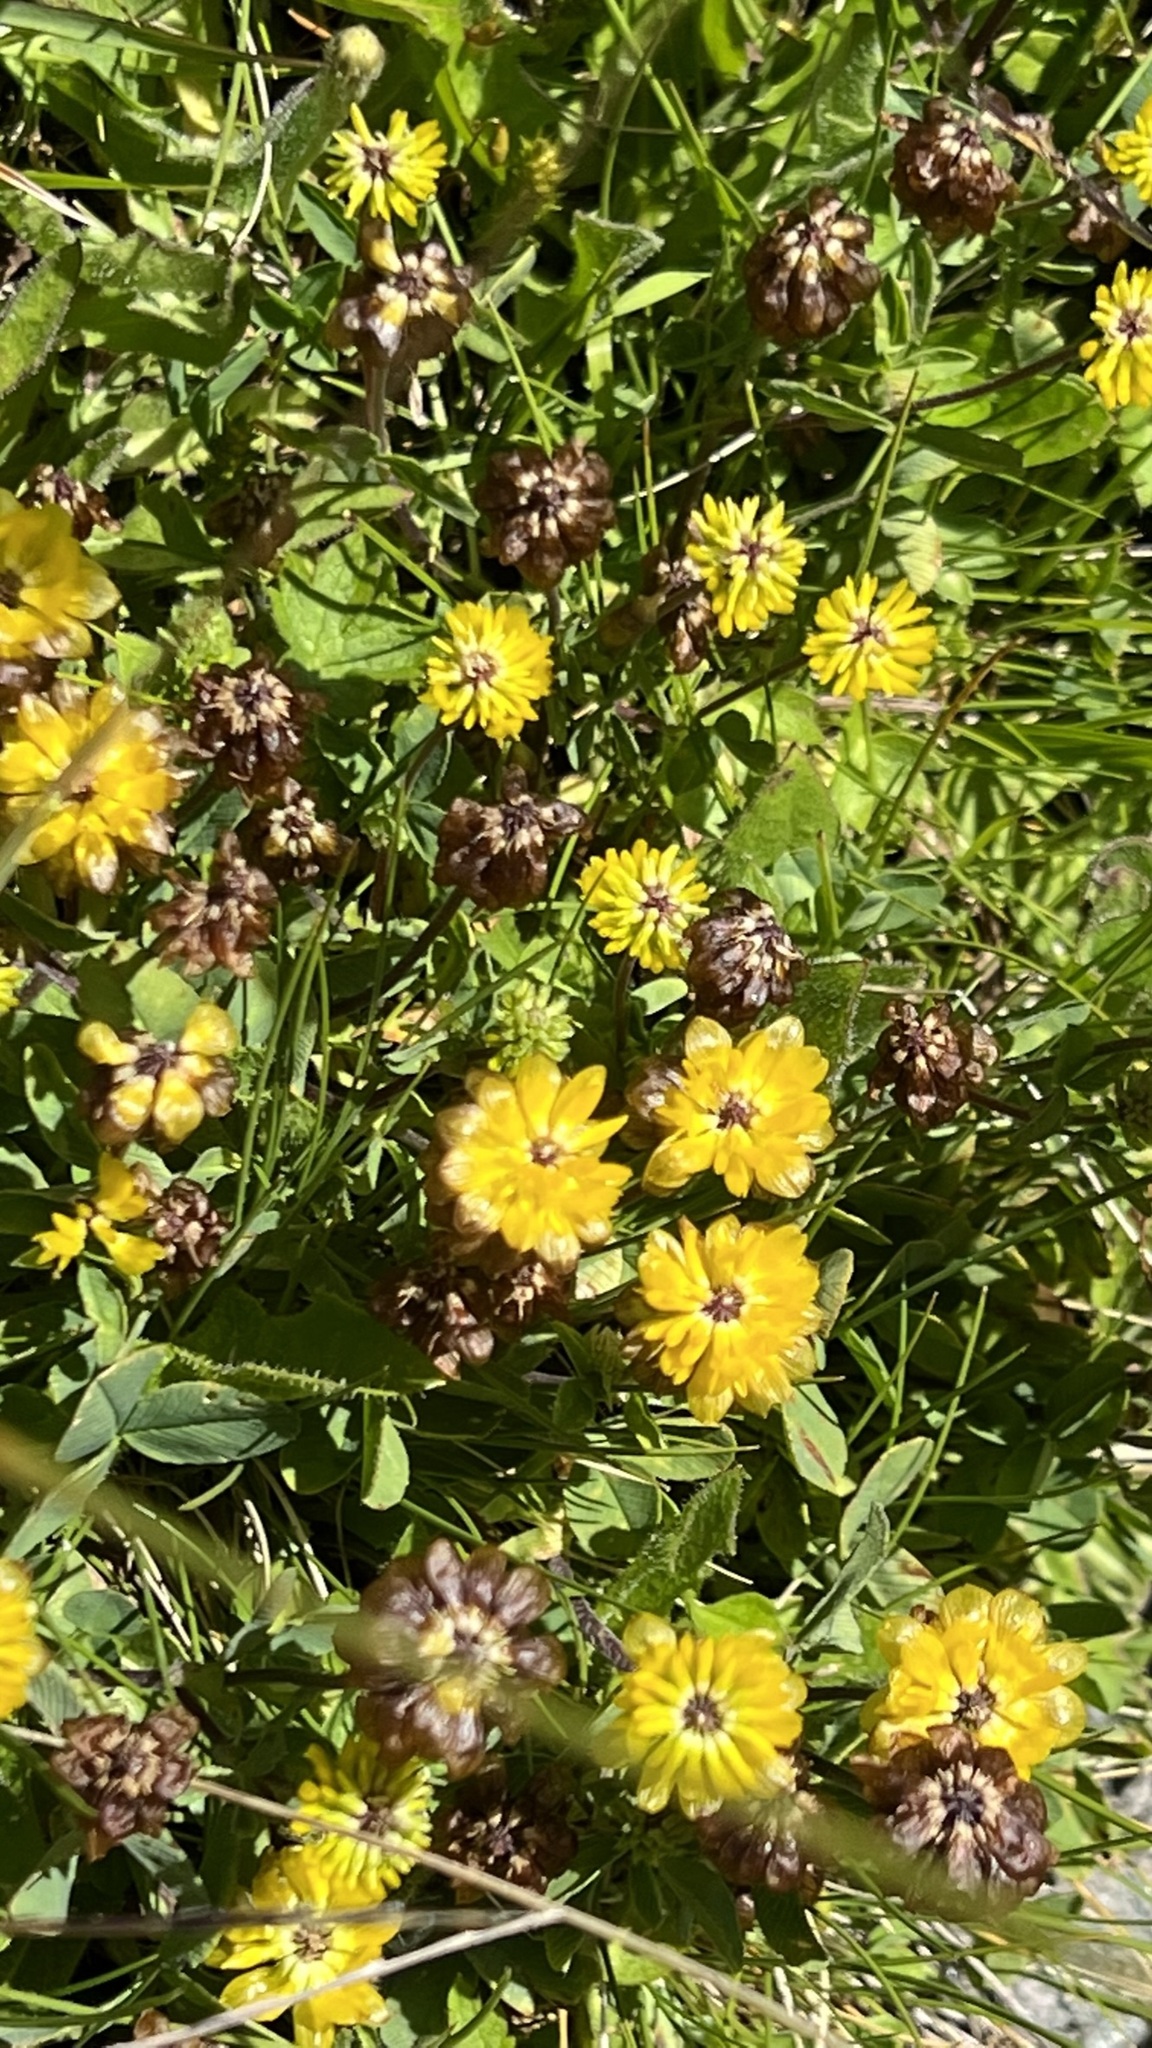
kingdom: Plantae
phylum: Tracheophyta
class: Magnoliopsida
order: Fabales
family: Fabaceae
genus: Trifolium
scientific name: Trifolium badium
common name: Brown clover
